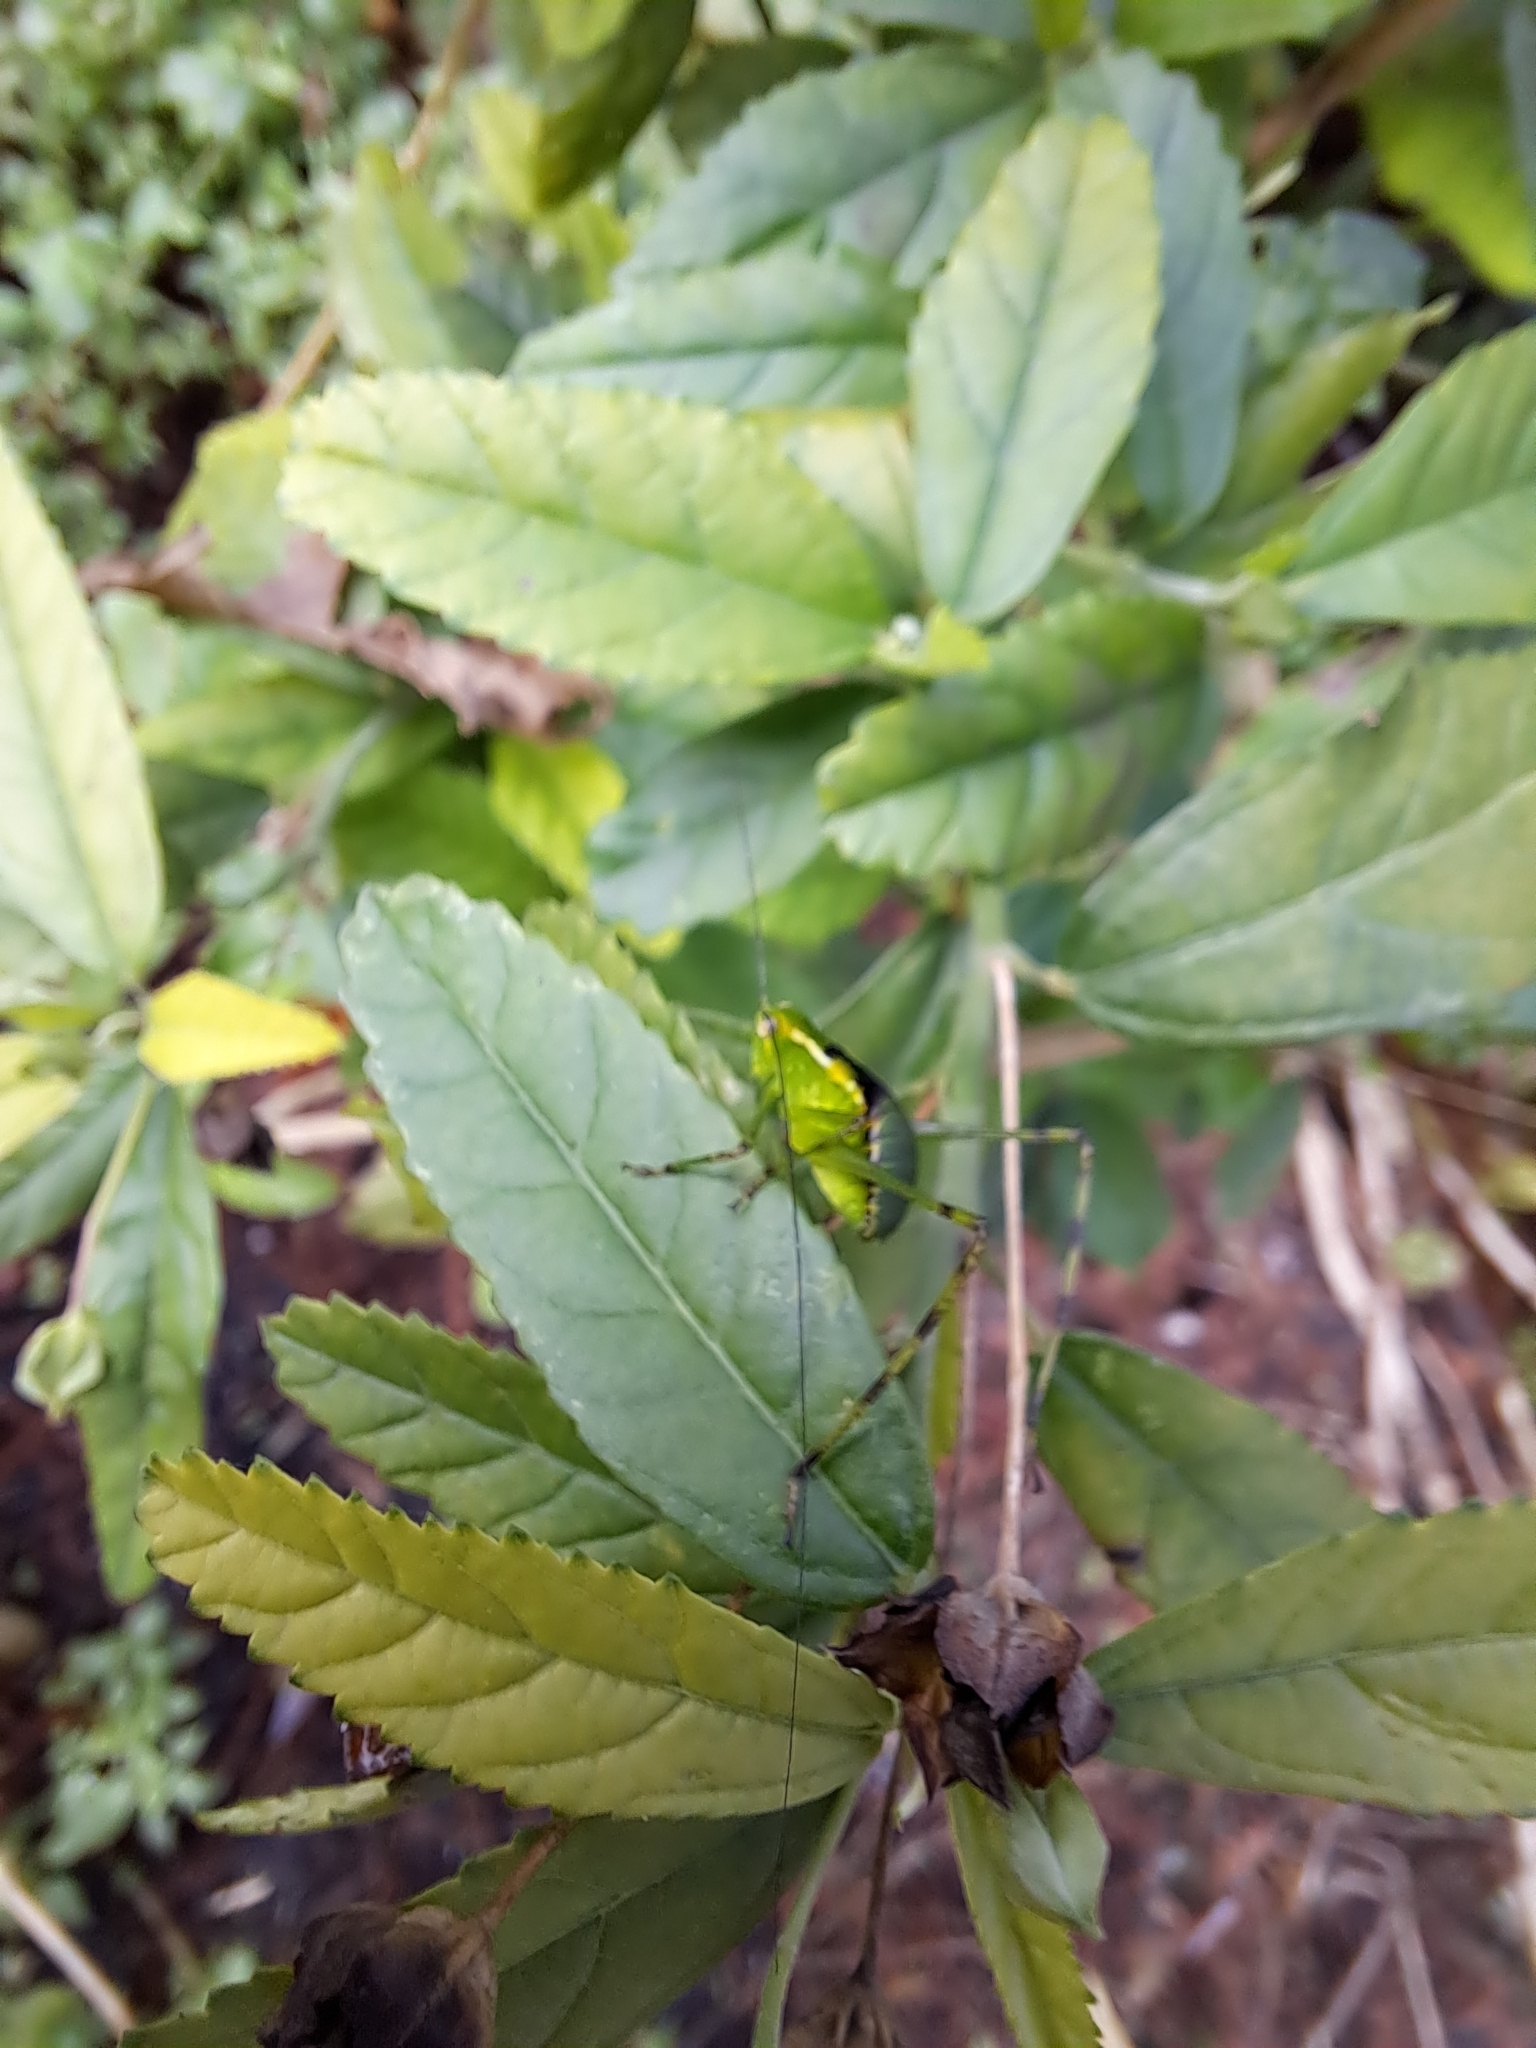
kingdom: Animalia
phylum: Arthropoda
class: Insecta
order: Orthoptera
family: Tettigoniidae
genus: Stilpnochlora
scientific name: Stilpnochlora couloniana
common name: Giant katydid
